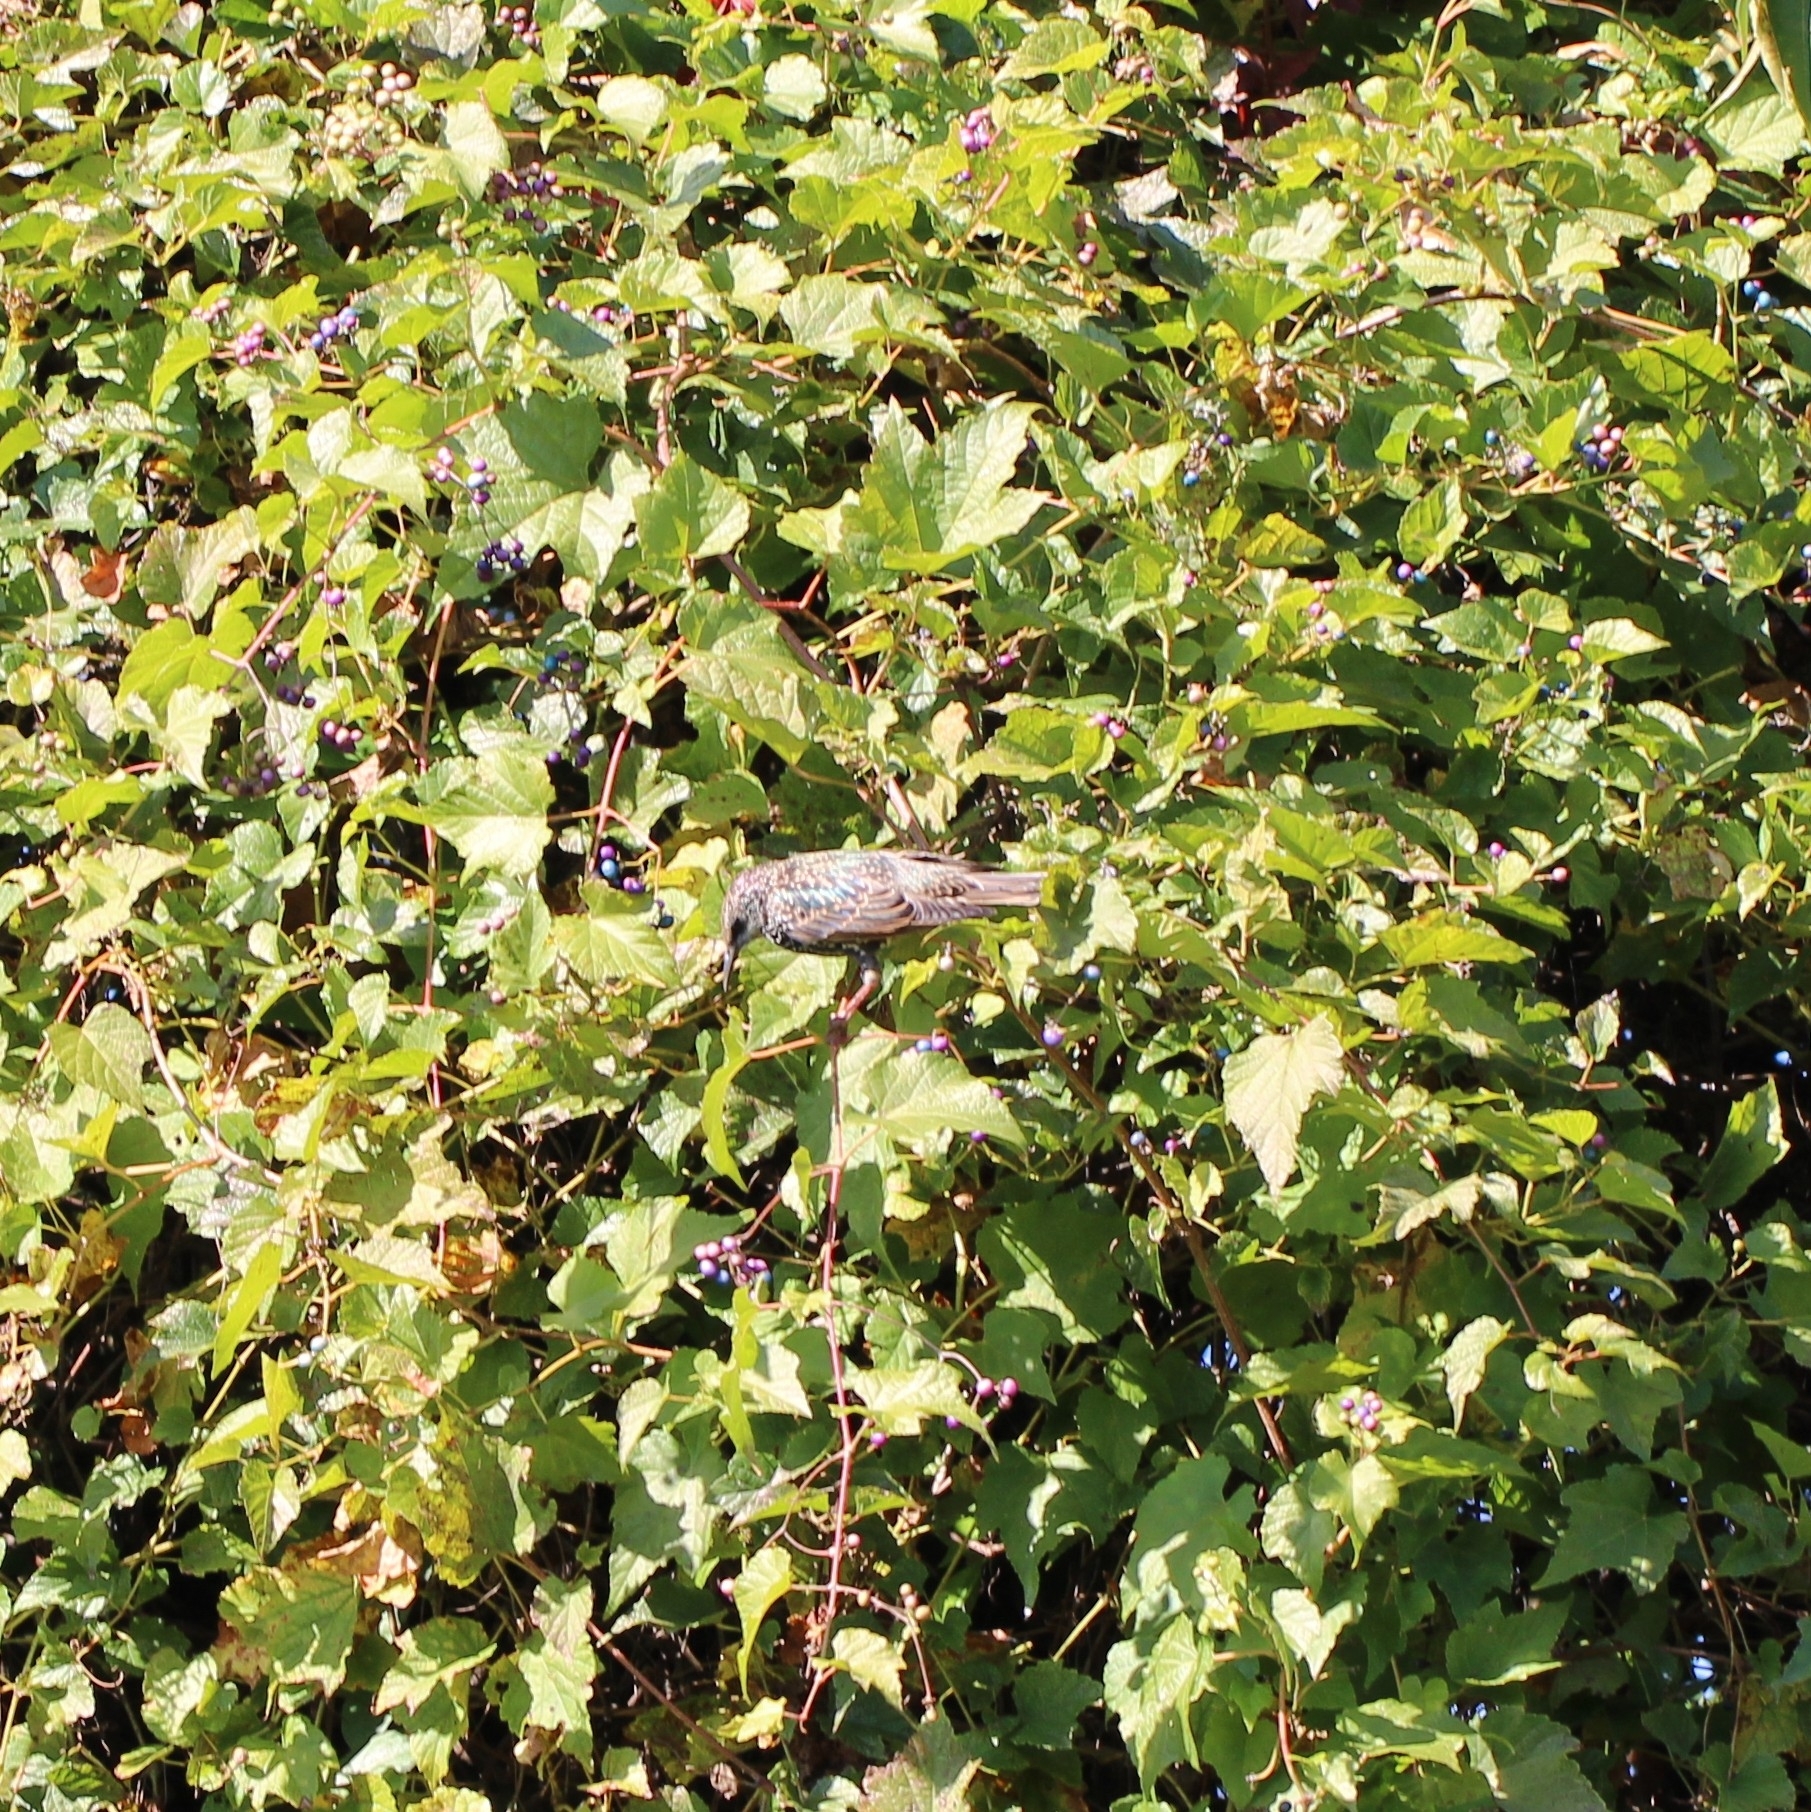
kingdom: Animalia
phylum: Chordata
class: Aves
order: Passeriformes
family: Sturnidae
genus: Sturnus
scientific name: Sturnus vulgaris
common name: Common starling
